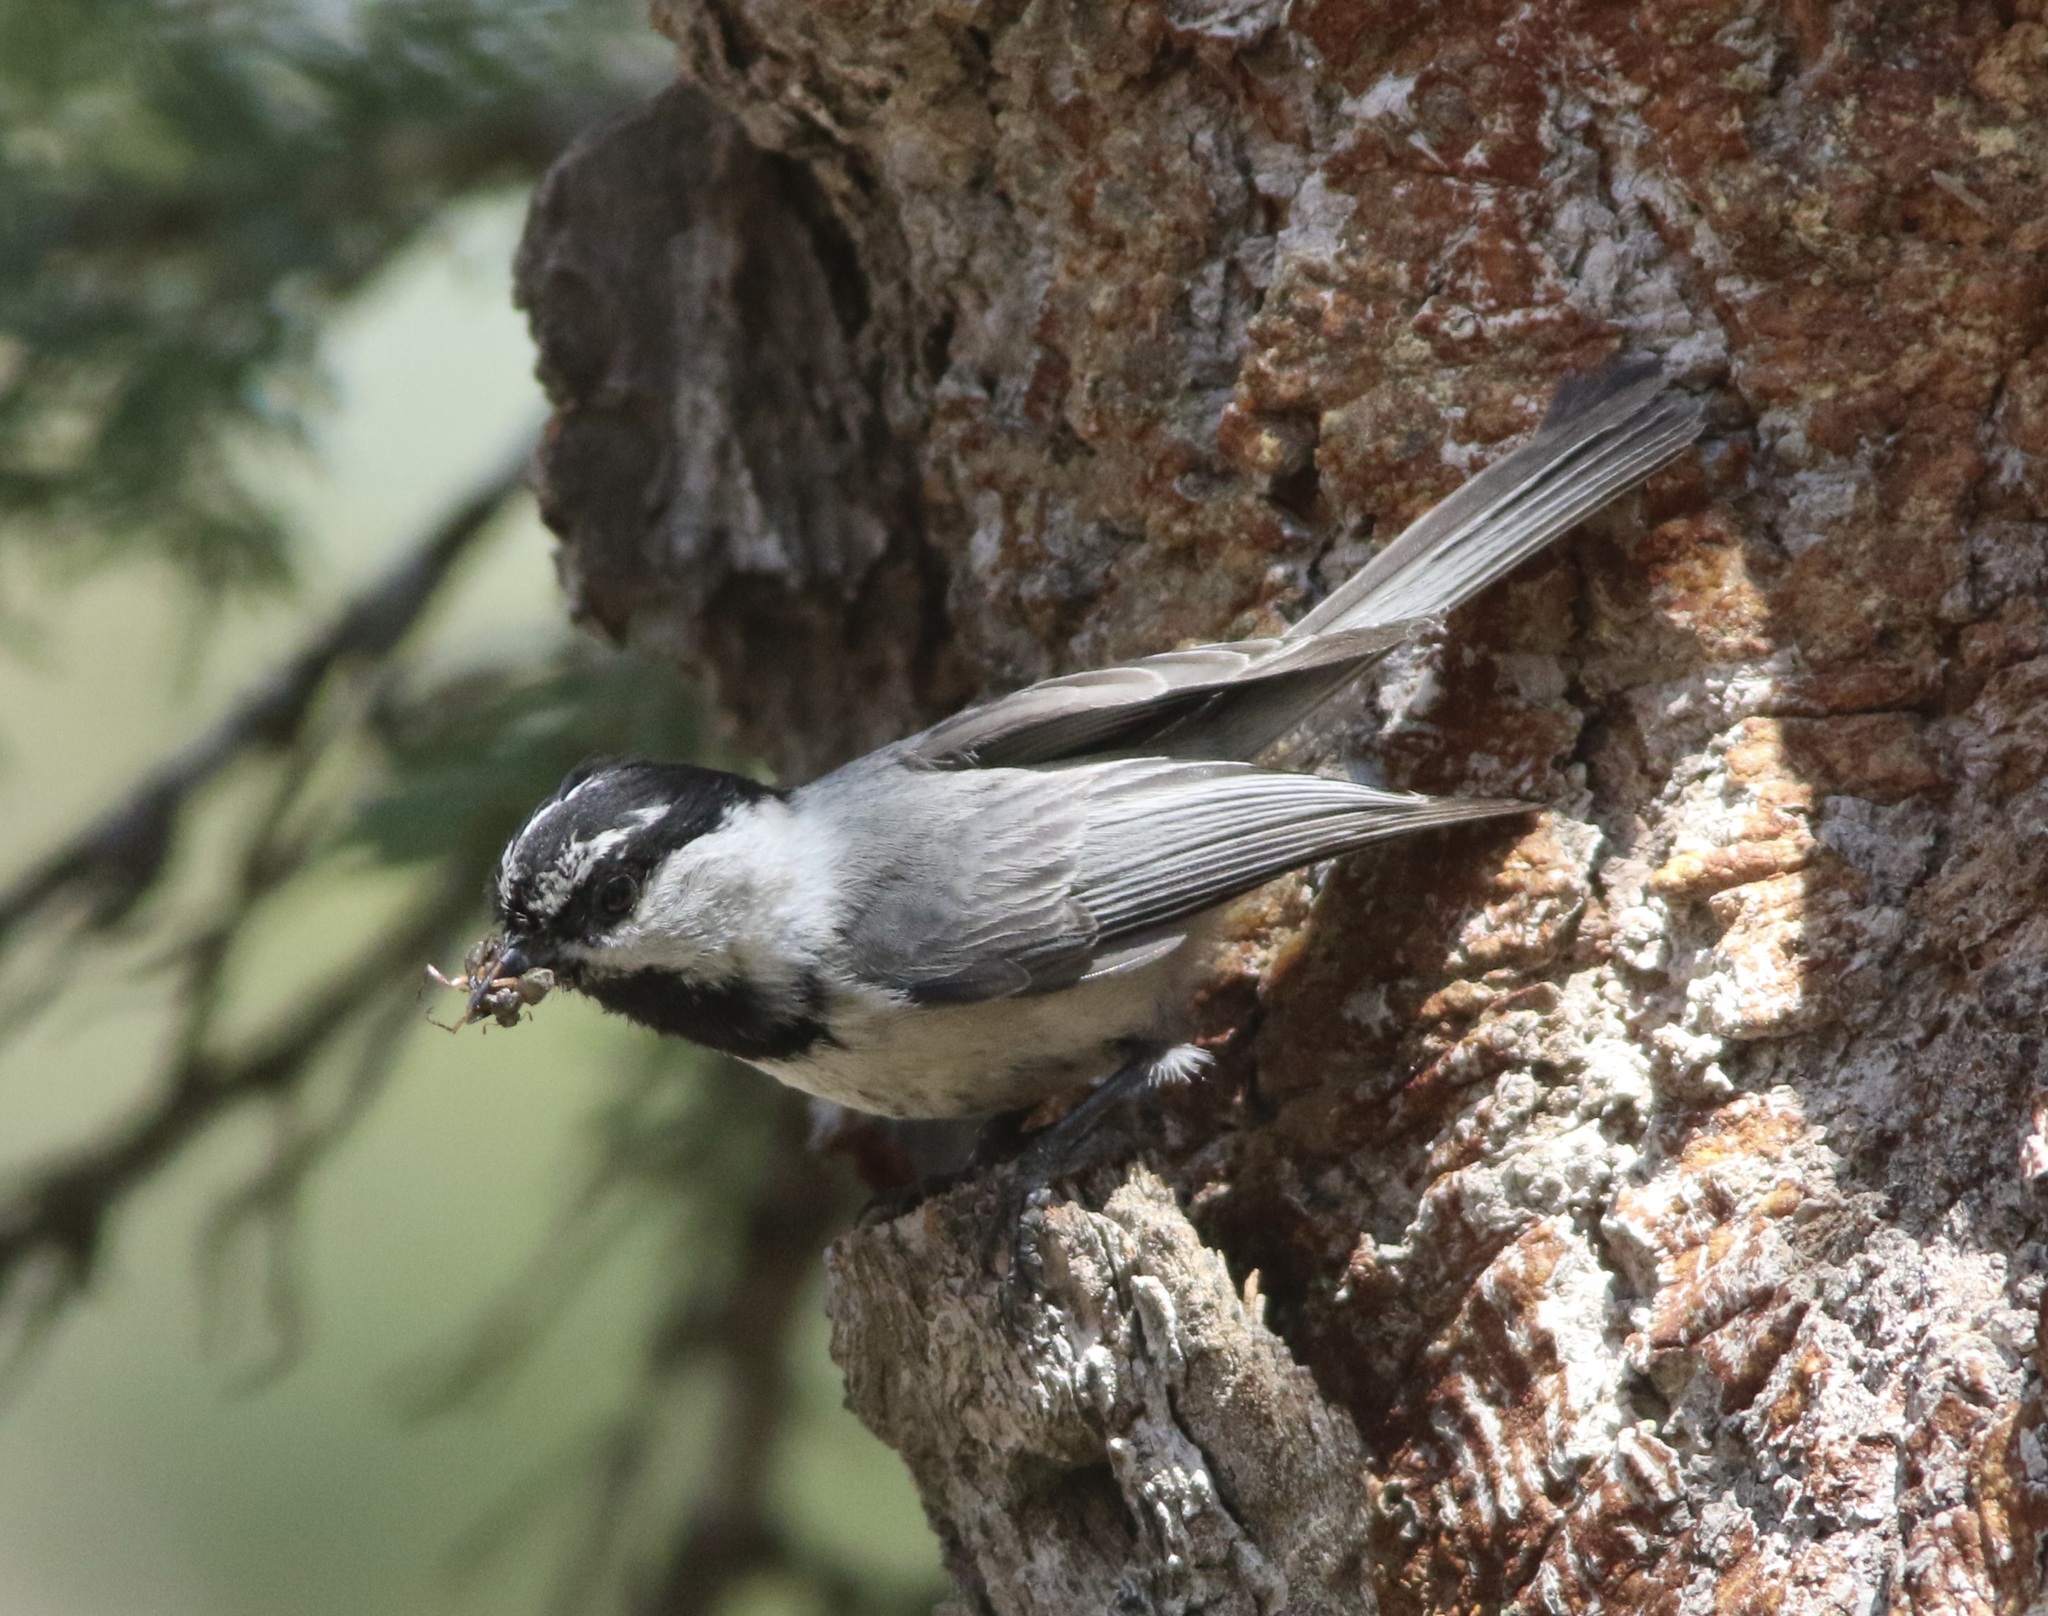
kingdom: Animalia
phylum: Chordata
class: Aves
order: Passeriformes
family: Paridae
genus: Poecile
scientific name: Poecile gambeli
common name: Mountain chickadee
